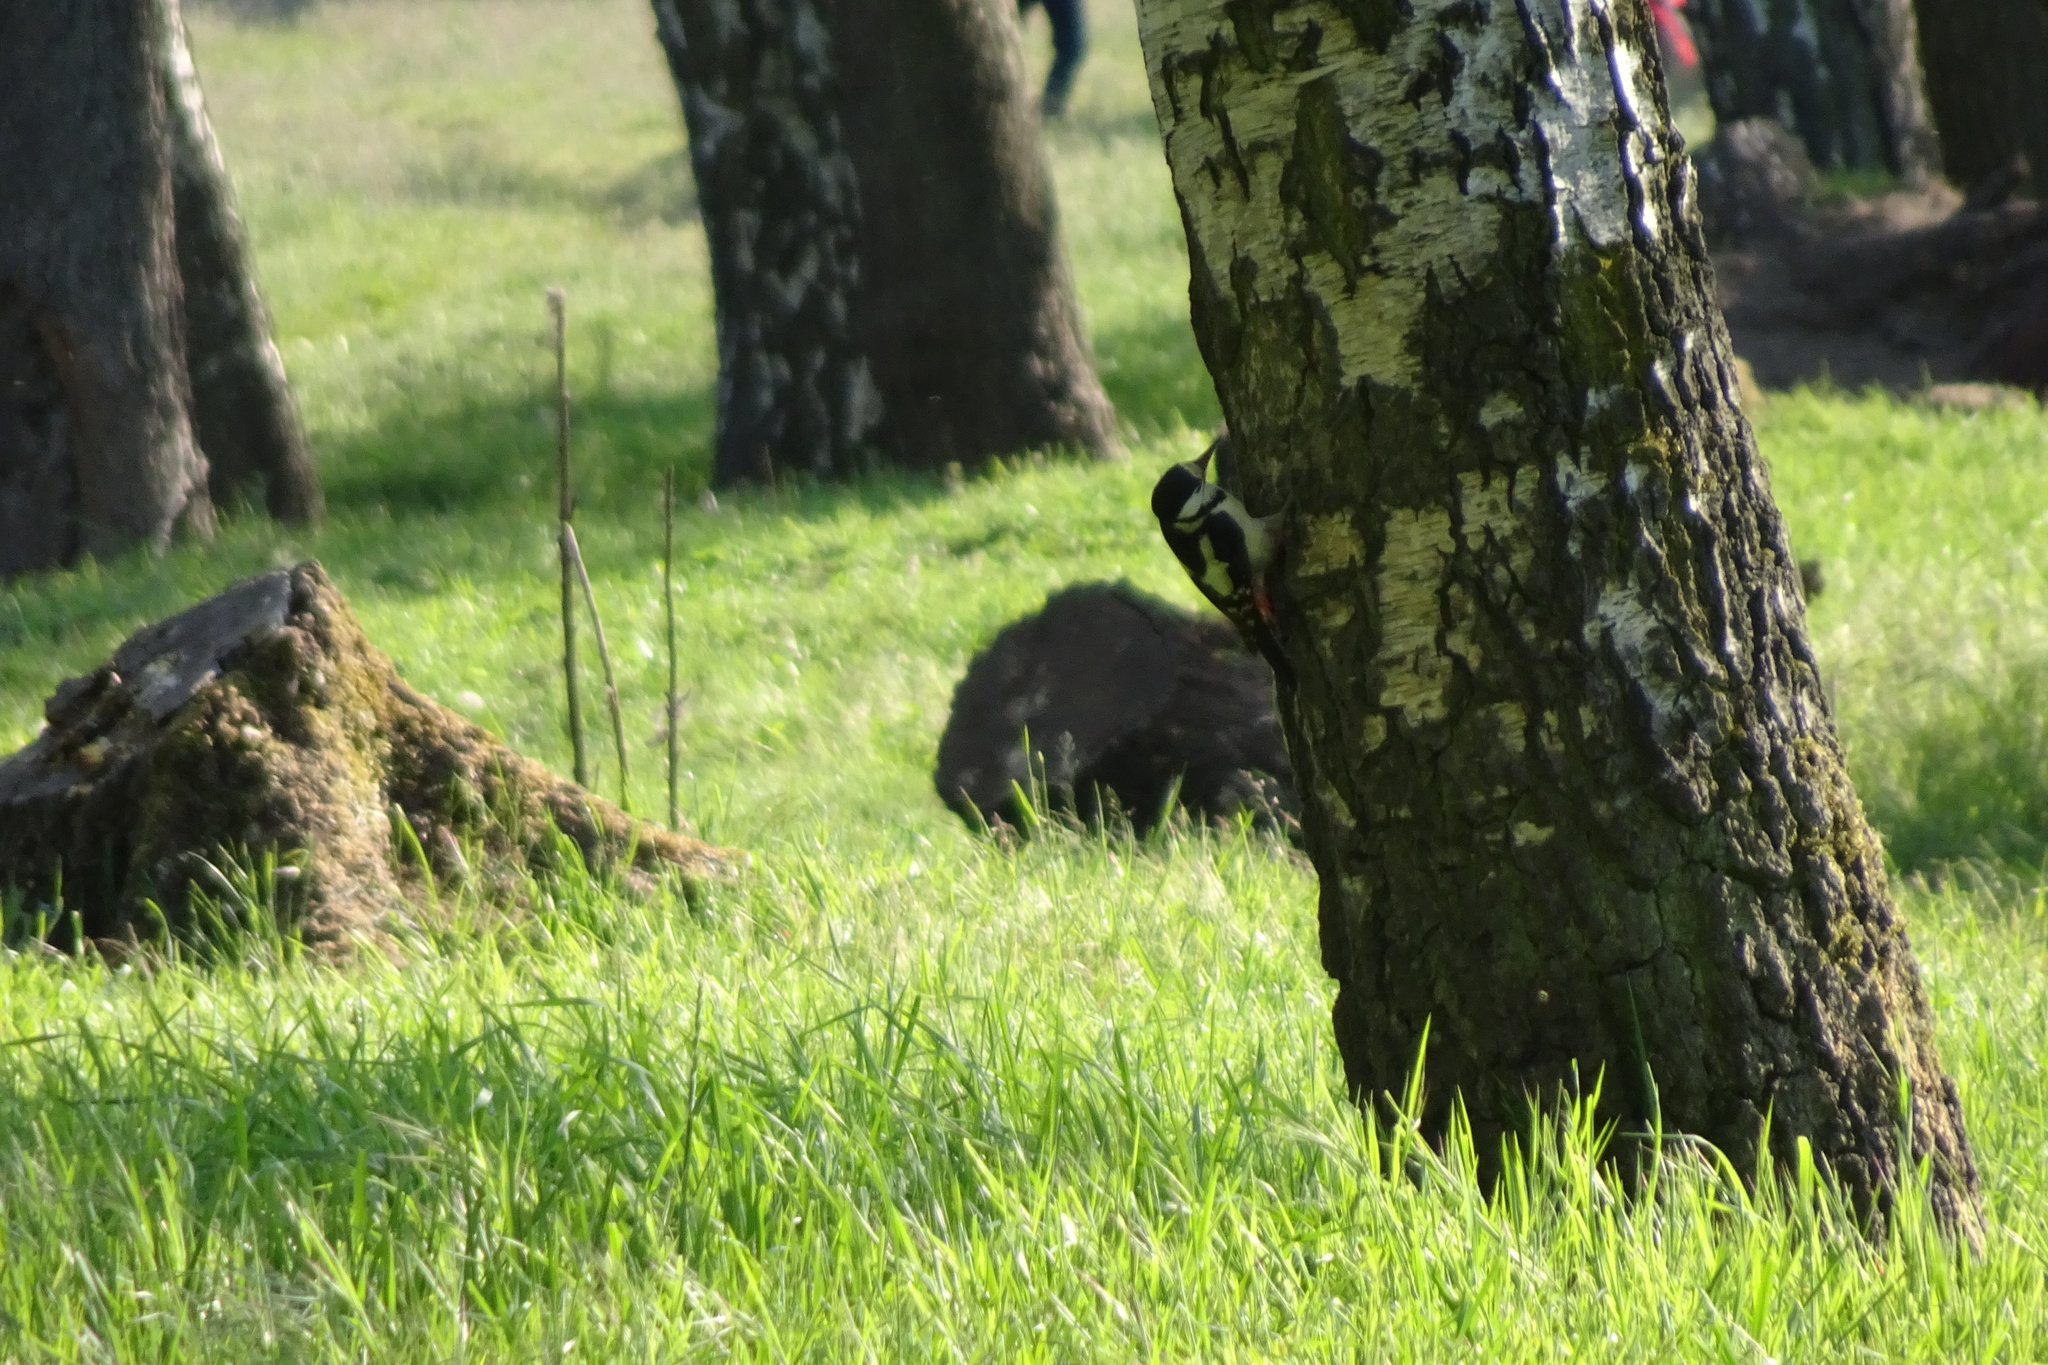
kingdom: Animalia
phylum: Chordata
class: Aves
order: Piciformes
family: Picidae
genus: Dendrocopos
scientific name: Dendrocopos major
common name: Great spotted woodpecker
